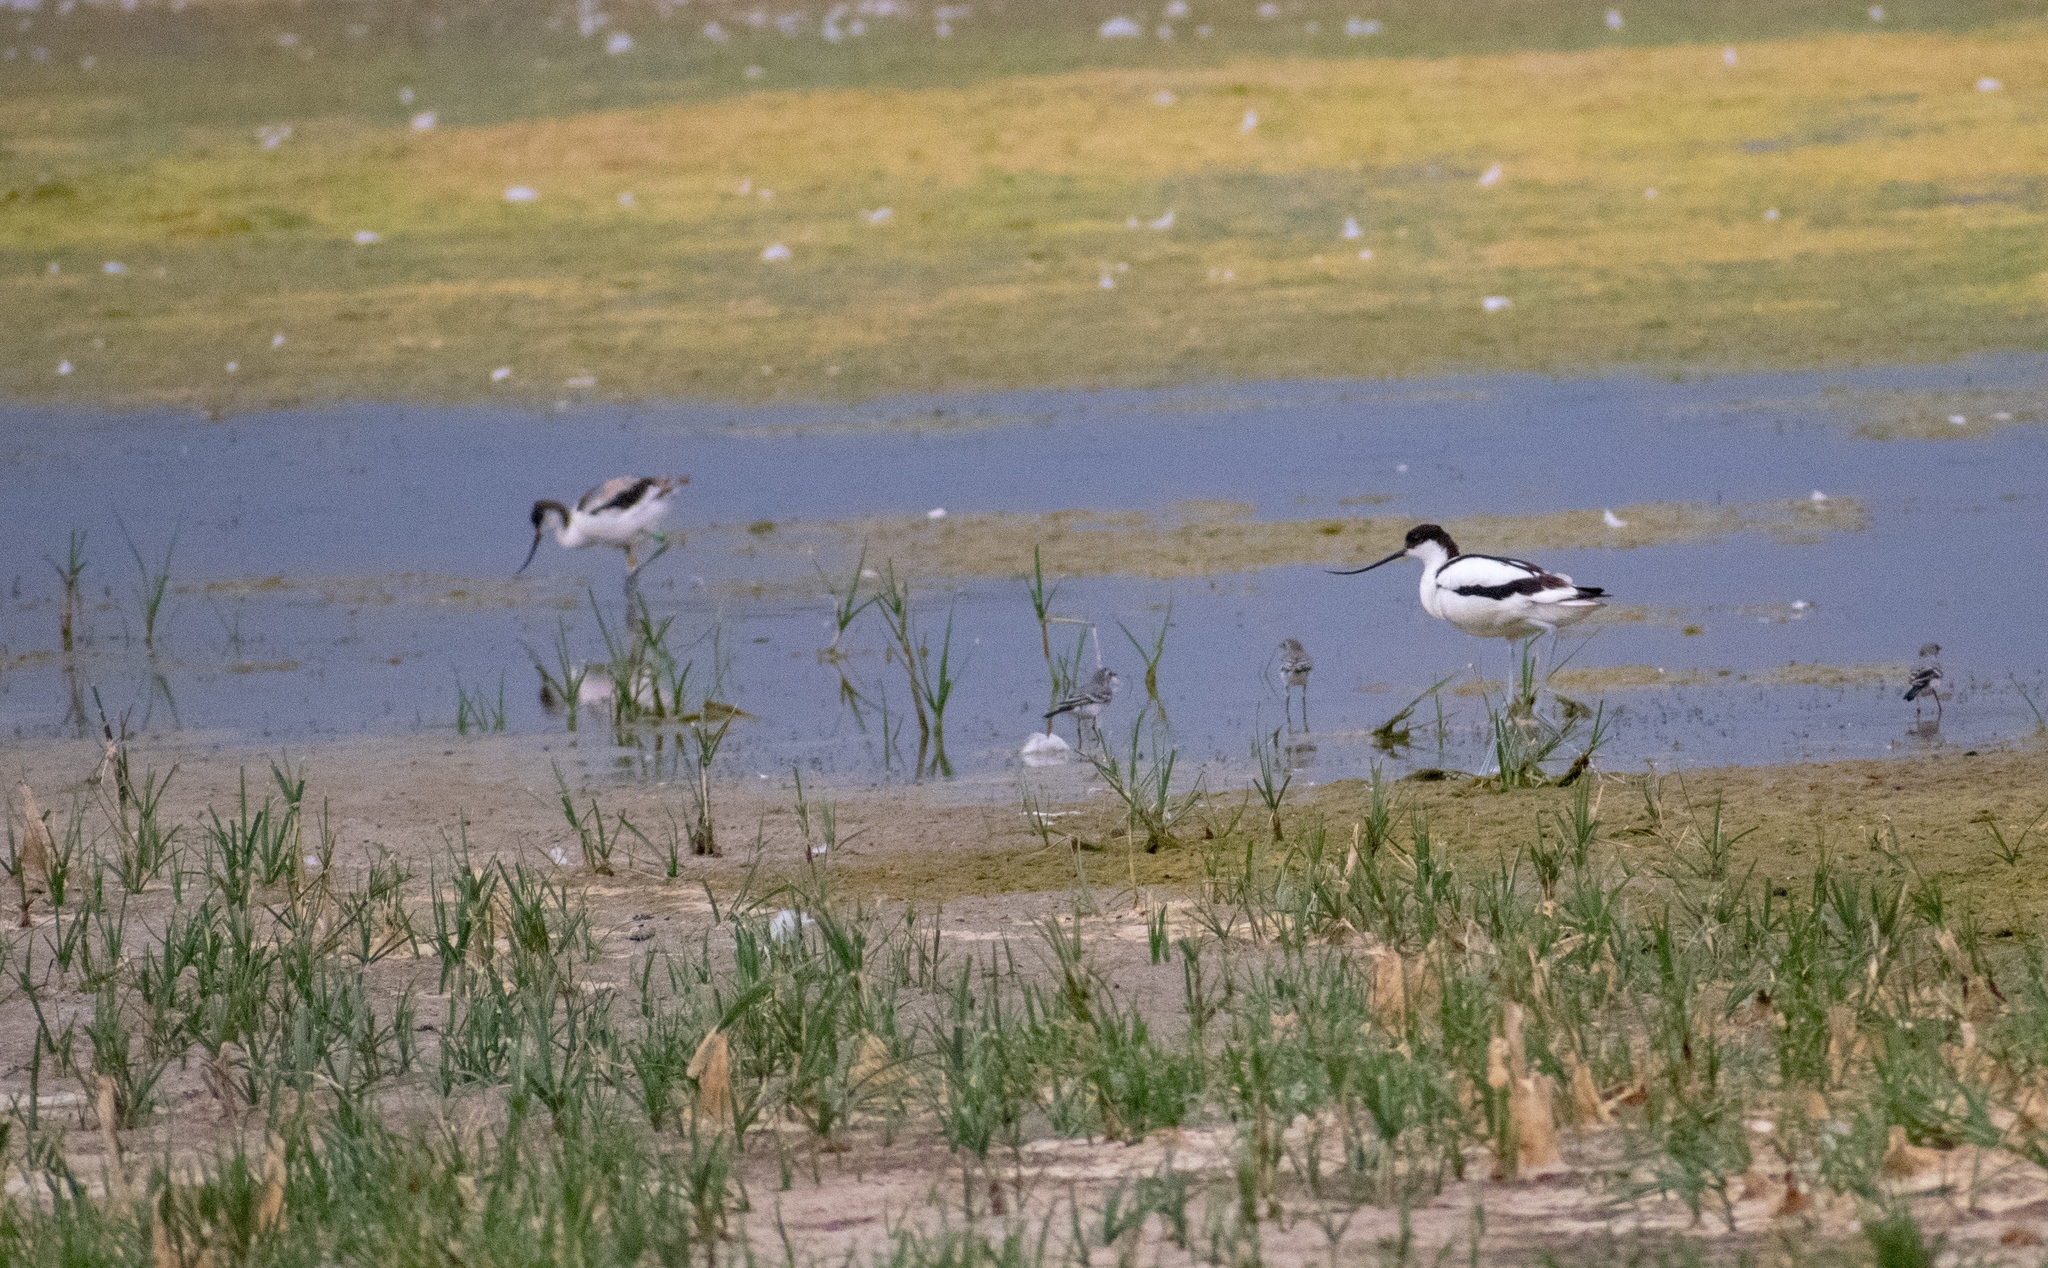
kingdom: Animalia
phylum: Chordata
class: Aves
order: Charadriiformes
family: Recurvirostridae
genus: Recurvirostra
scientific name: Recurvirostra avosetta
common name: Pied avocet
